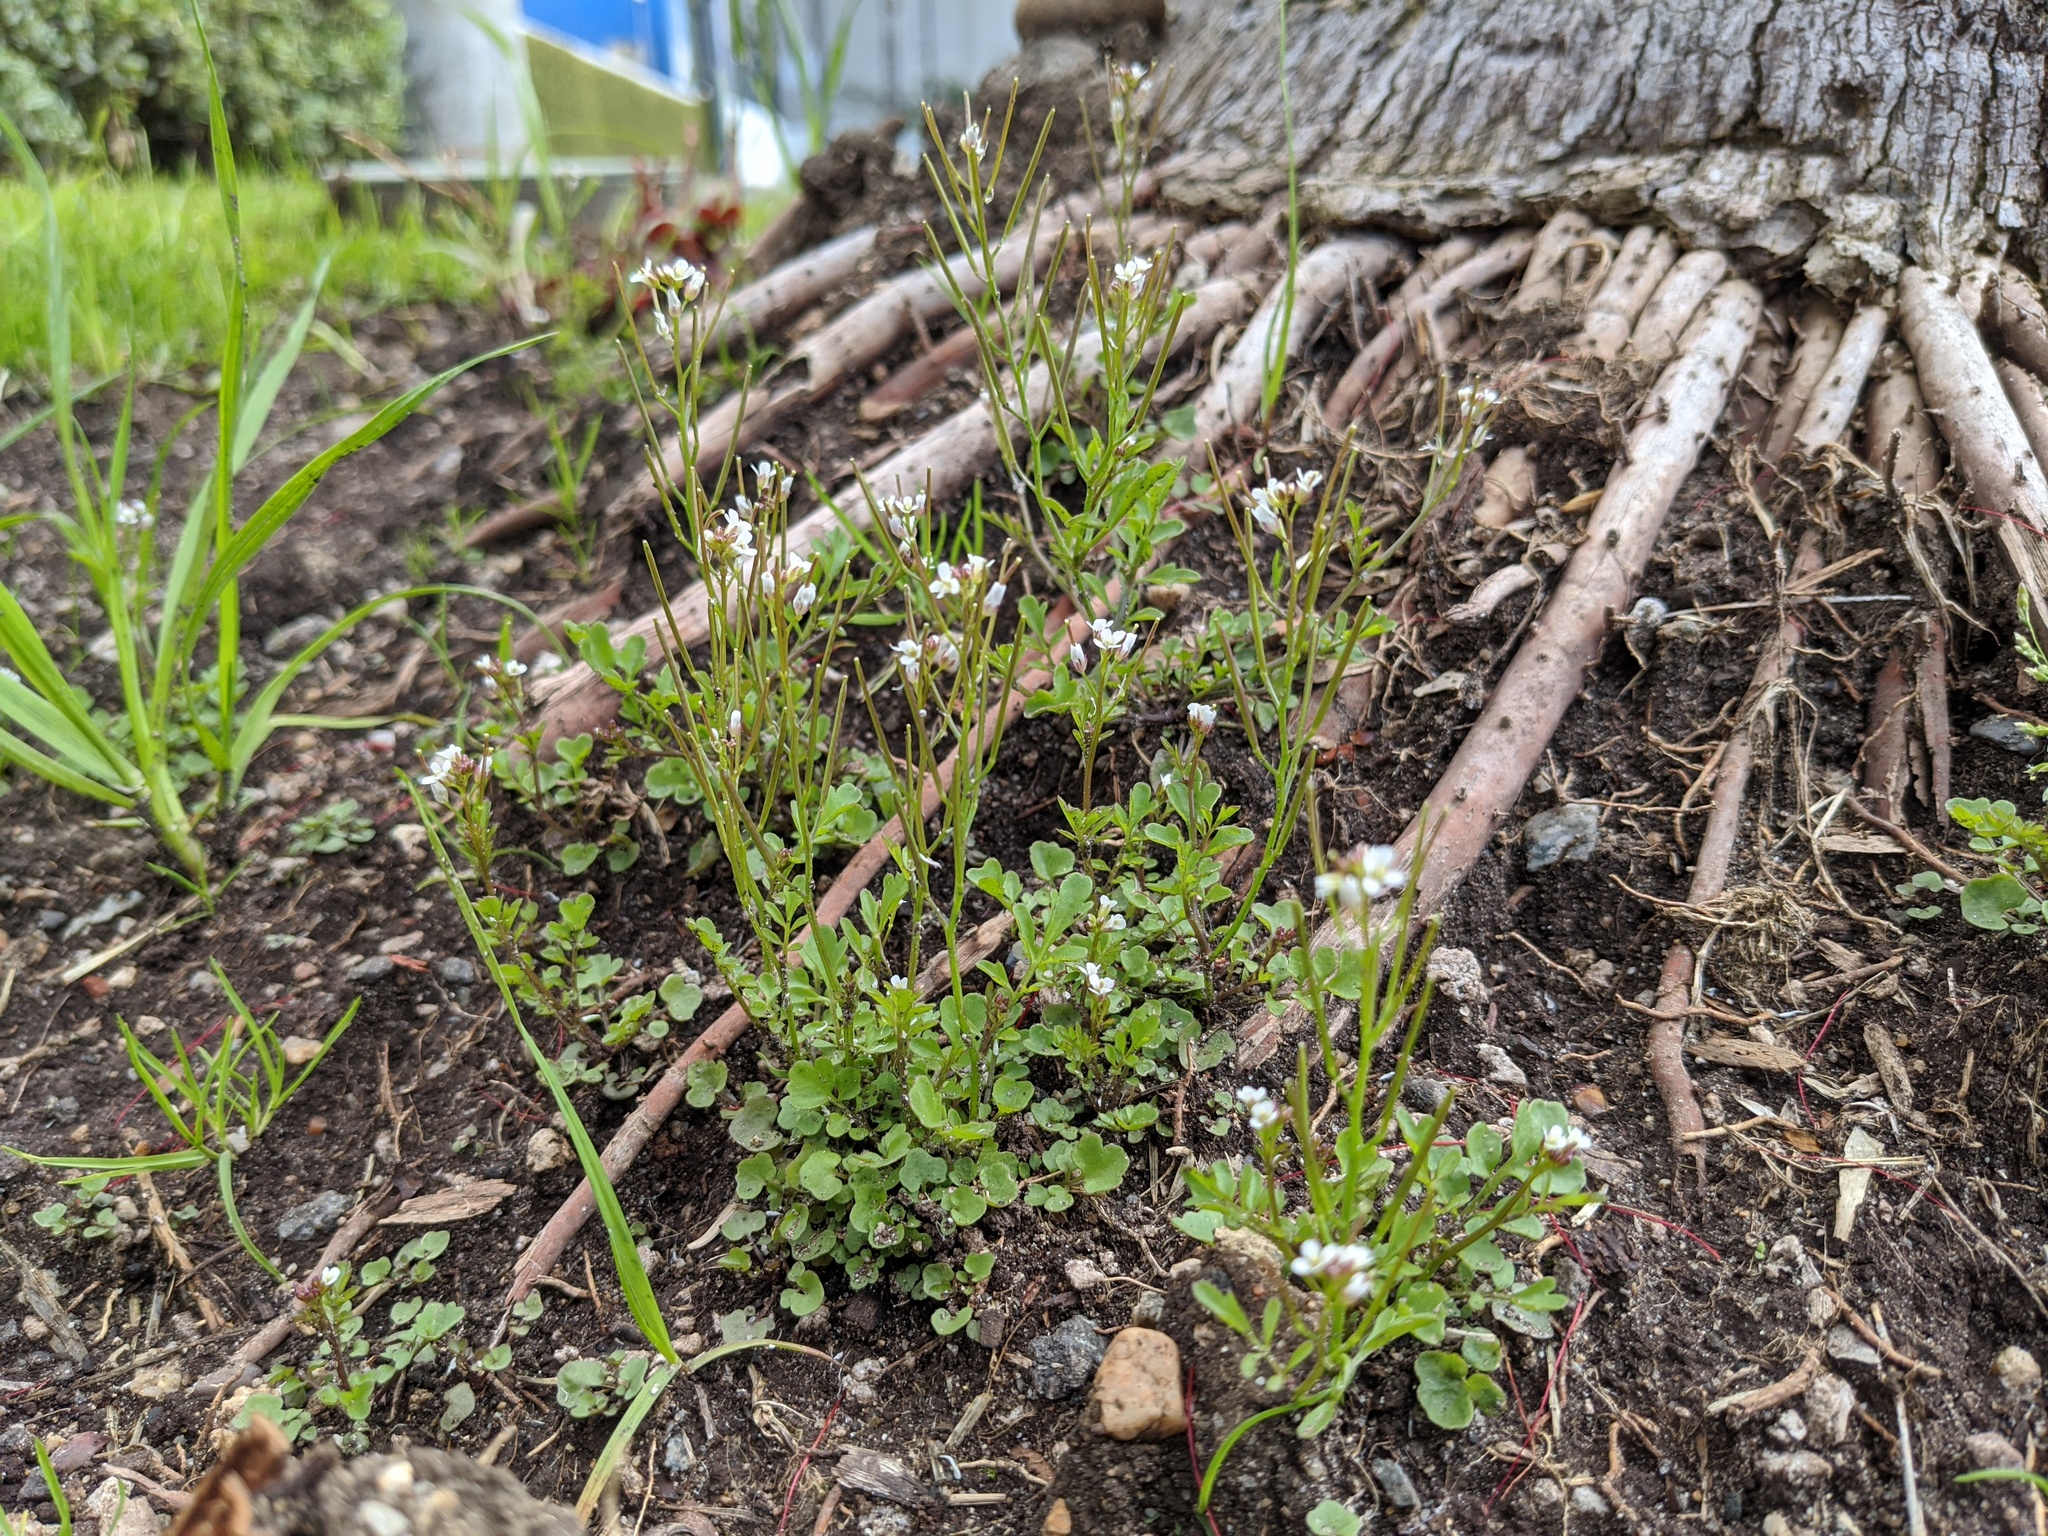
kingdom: Plantae
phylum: Tracheophyta
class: Magnoliopsida
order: Brassicales
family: Brassicaceae
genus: Cardamine
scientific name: Cardamine occulta
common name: Asian wavy bittercress
